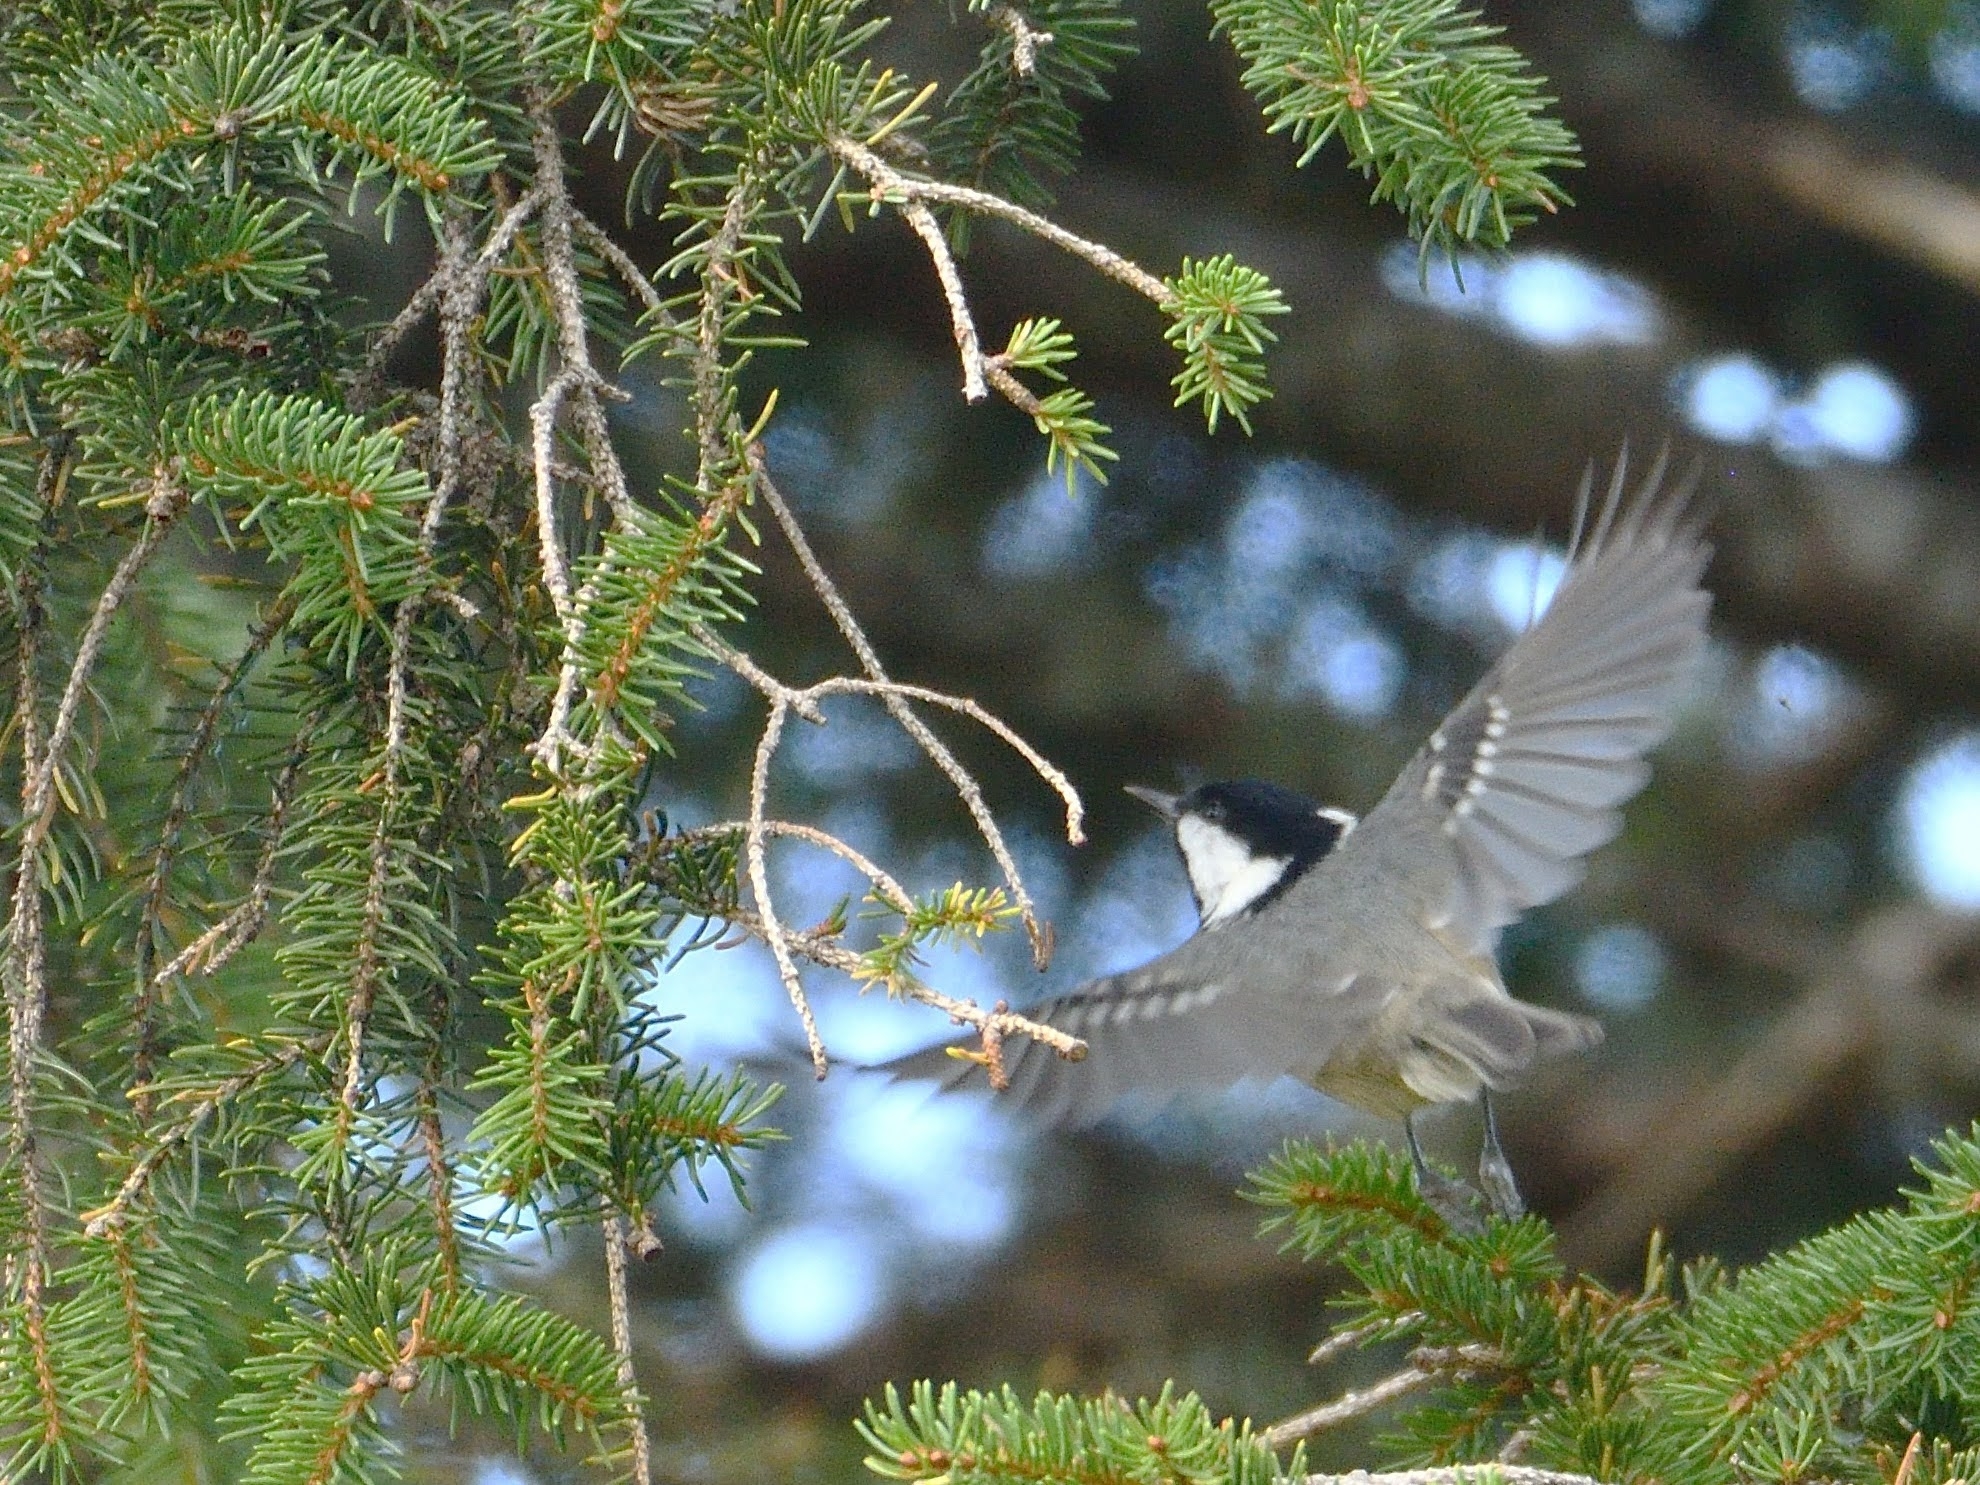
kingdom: Animalia
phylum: Chordata
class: Aves
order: Passeriformes
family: Paridae
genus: Periparus
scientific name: Periparus ater
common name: Coal tit
